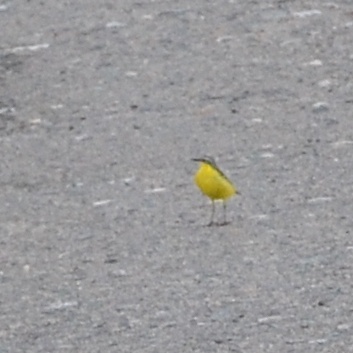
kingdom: Animalia
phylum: Chordata
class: Aves
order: Passeriformes
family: Motacillidae
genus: Motacilla
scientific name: Motacilla flava
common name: Western yellow wagtail
